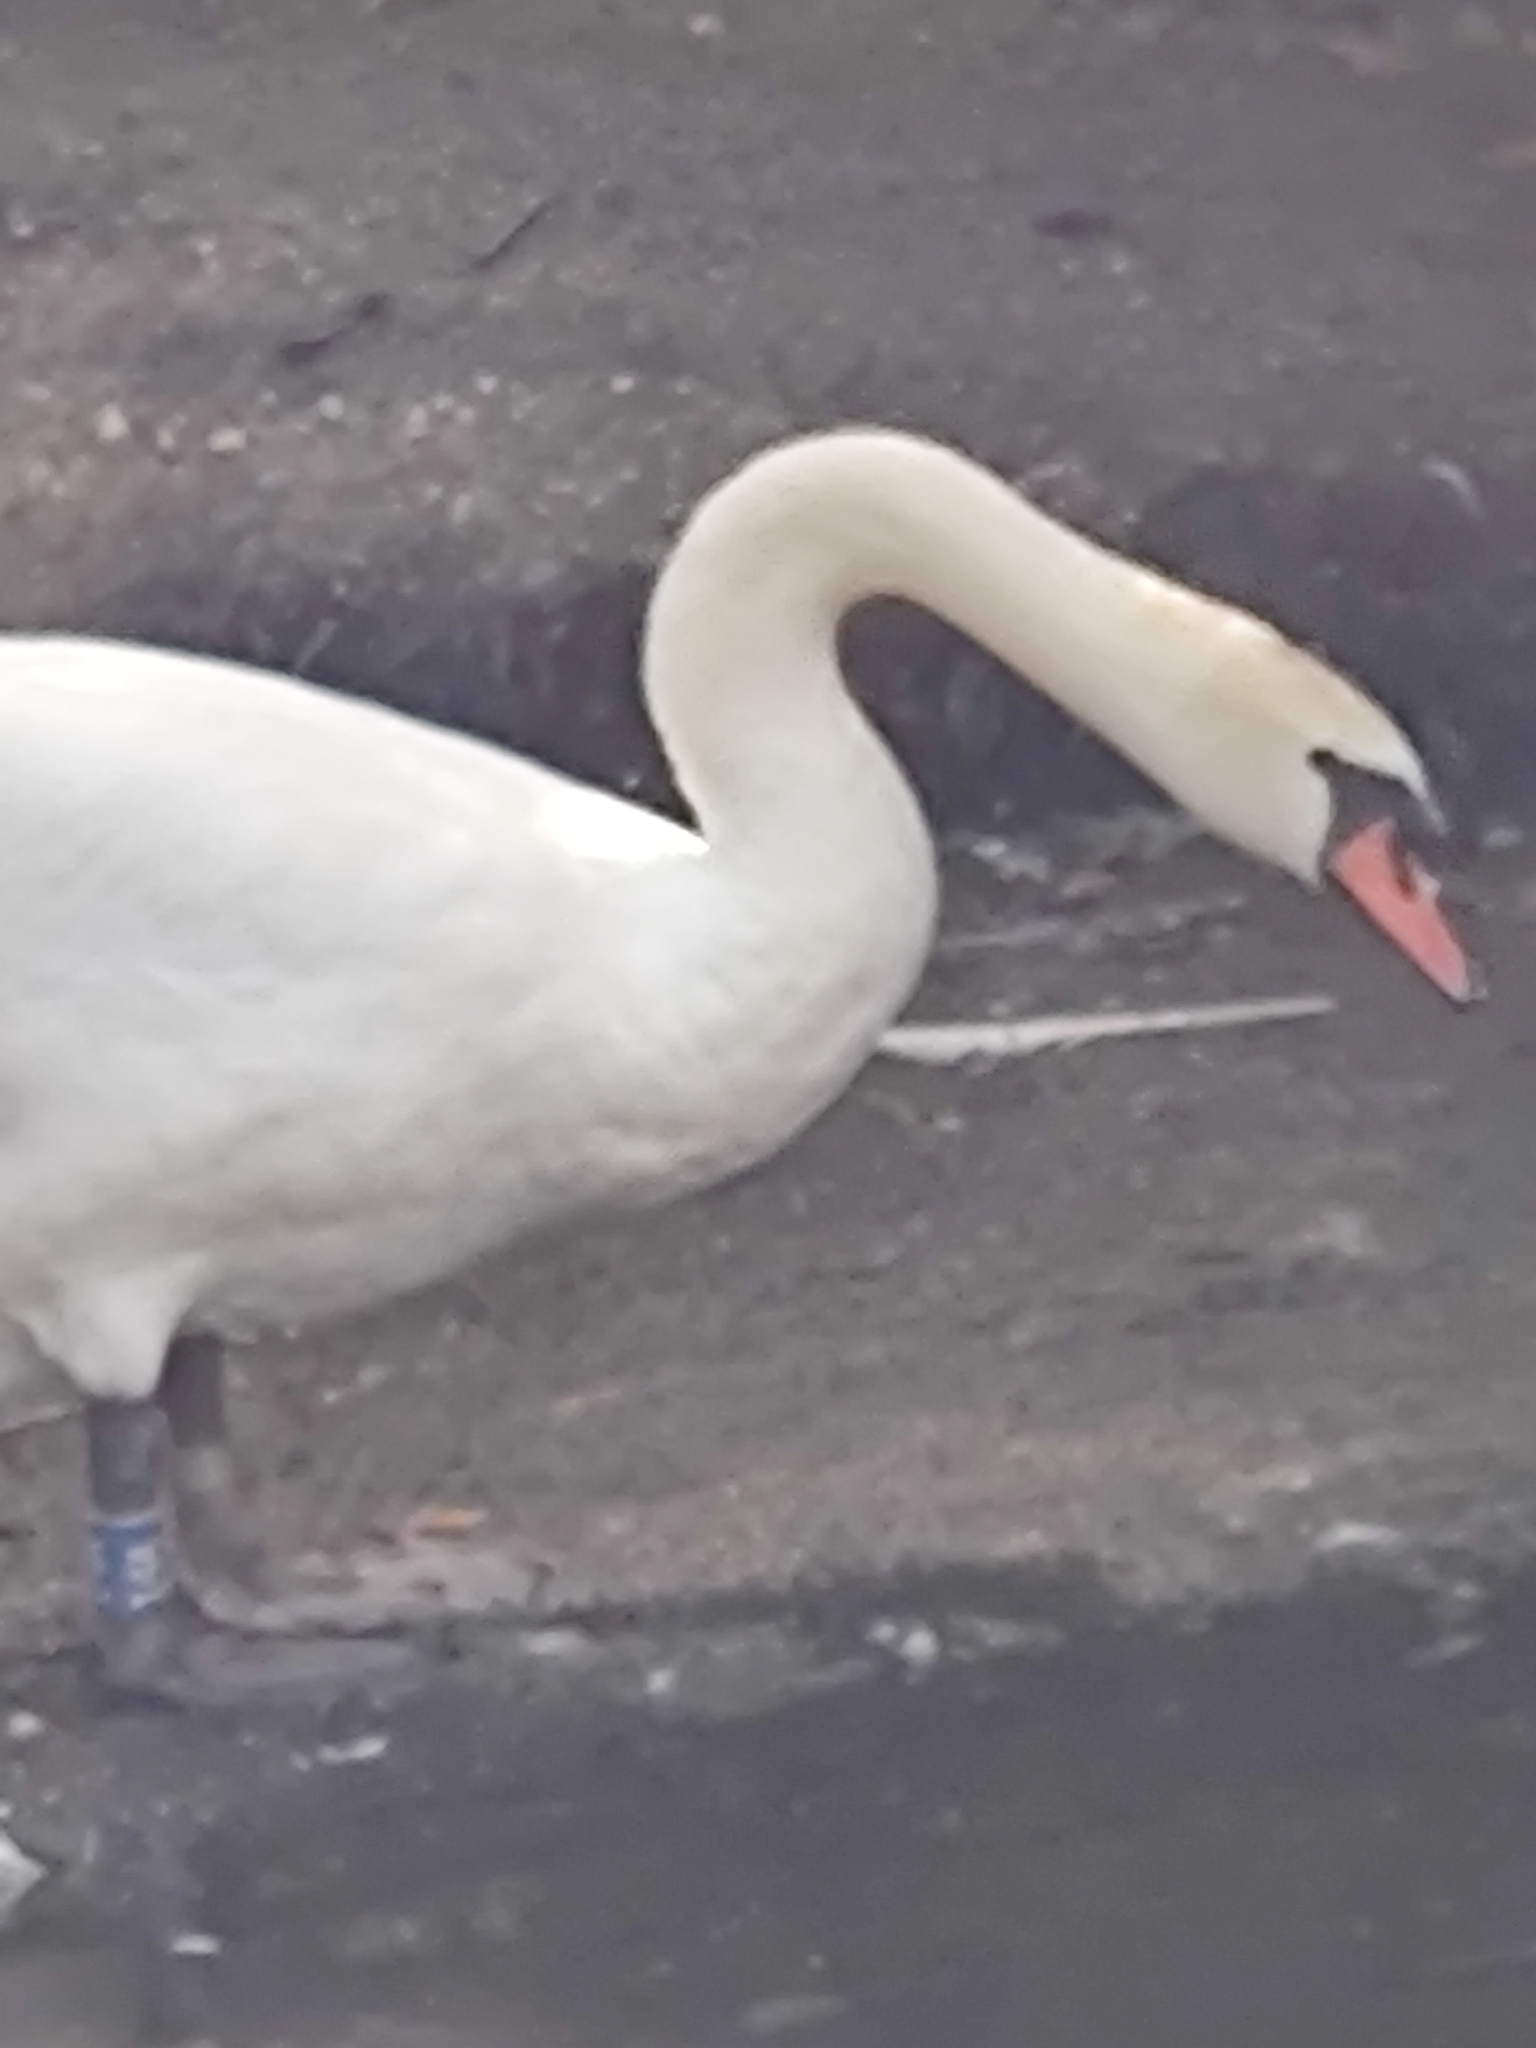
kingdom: Animalia
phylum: Chordata
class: Aves
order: Anseriformes
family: Anatidae
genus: Cygnus
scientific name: Cygnus olor
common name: Mute swan
